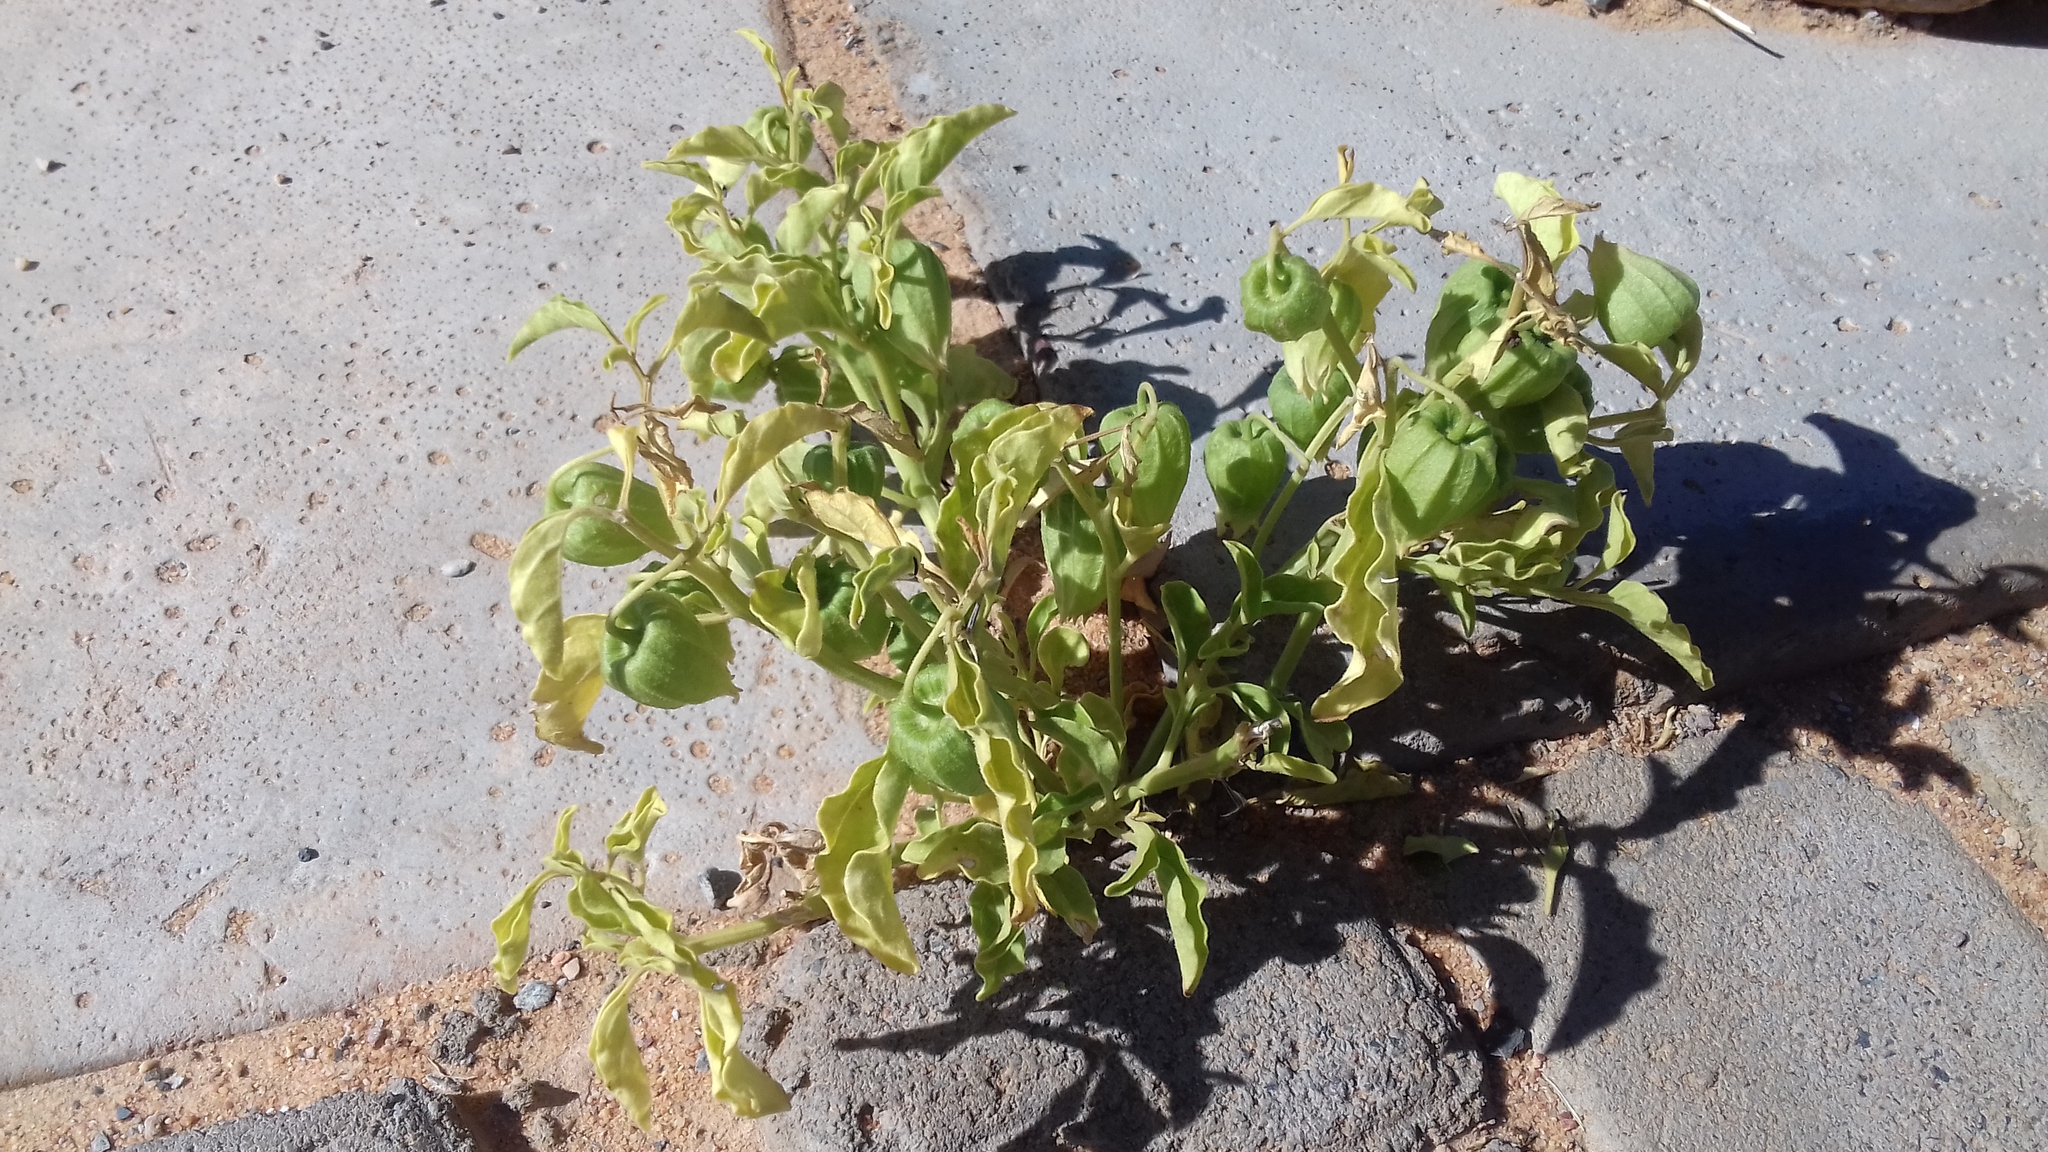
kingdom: Plantae
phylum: Tracheophyta
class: Magnoliopsida
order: Solanales
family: Solanaceae
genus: Physalis
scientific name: Physalis viscosa
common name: Stellate ground-cherry
